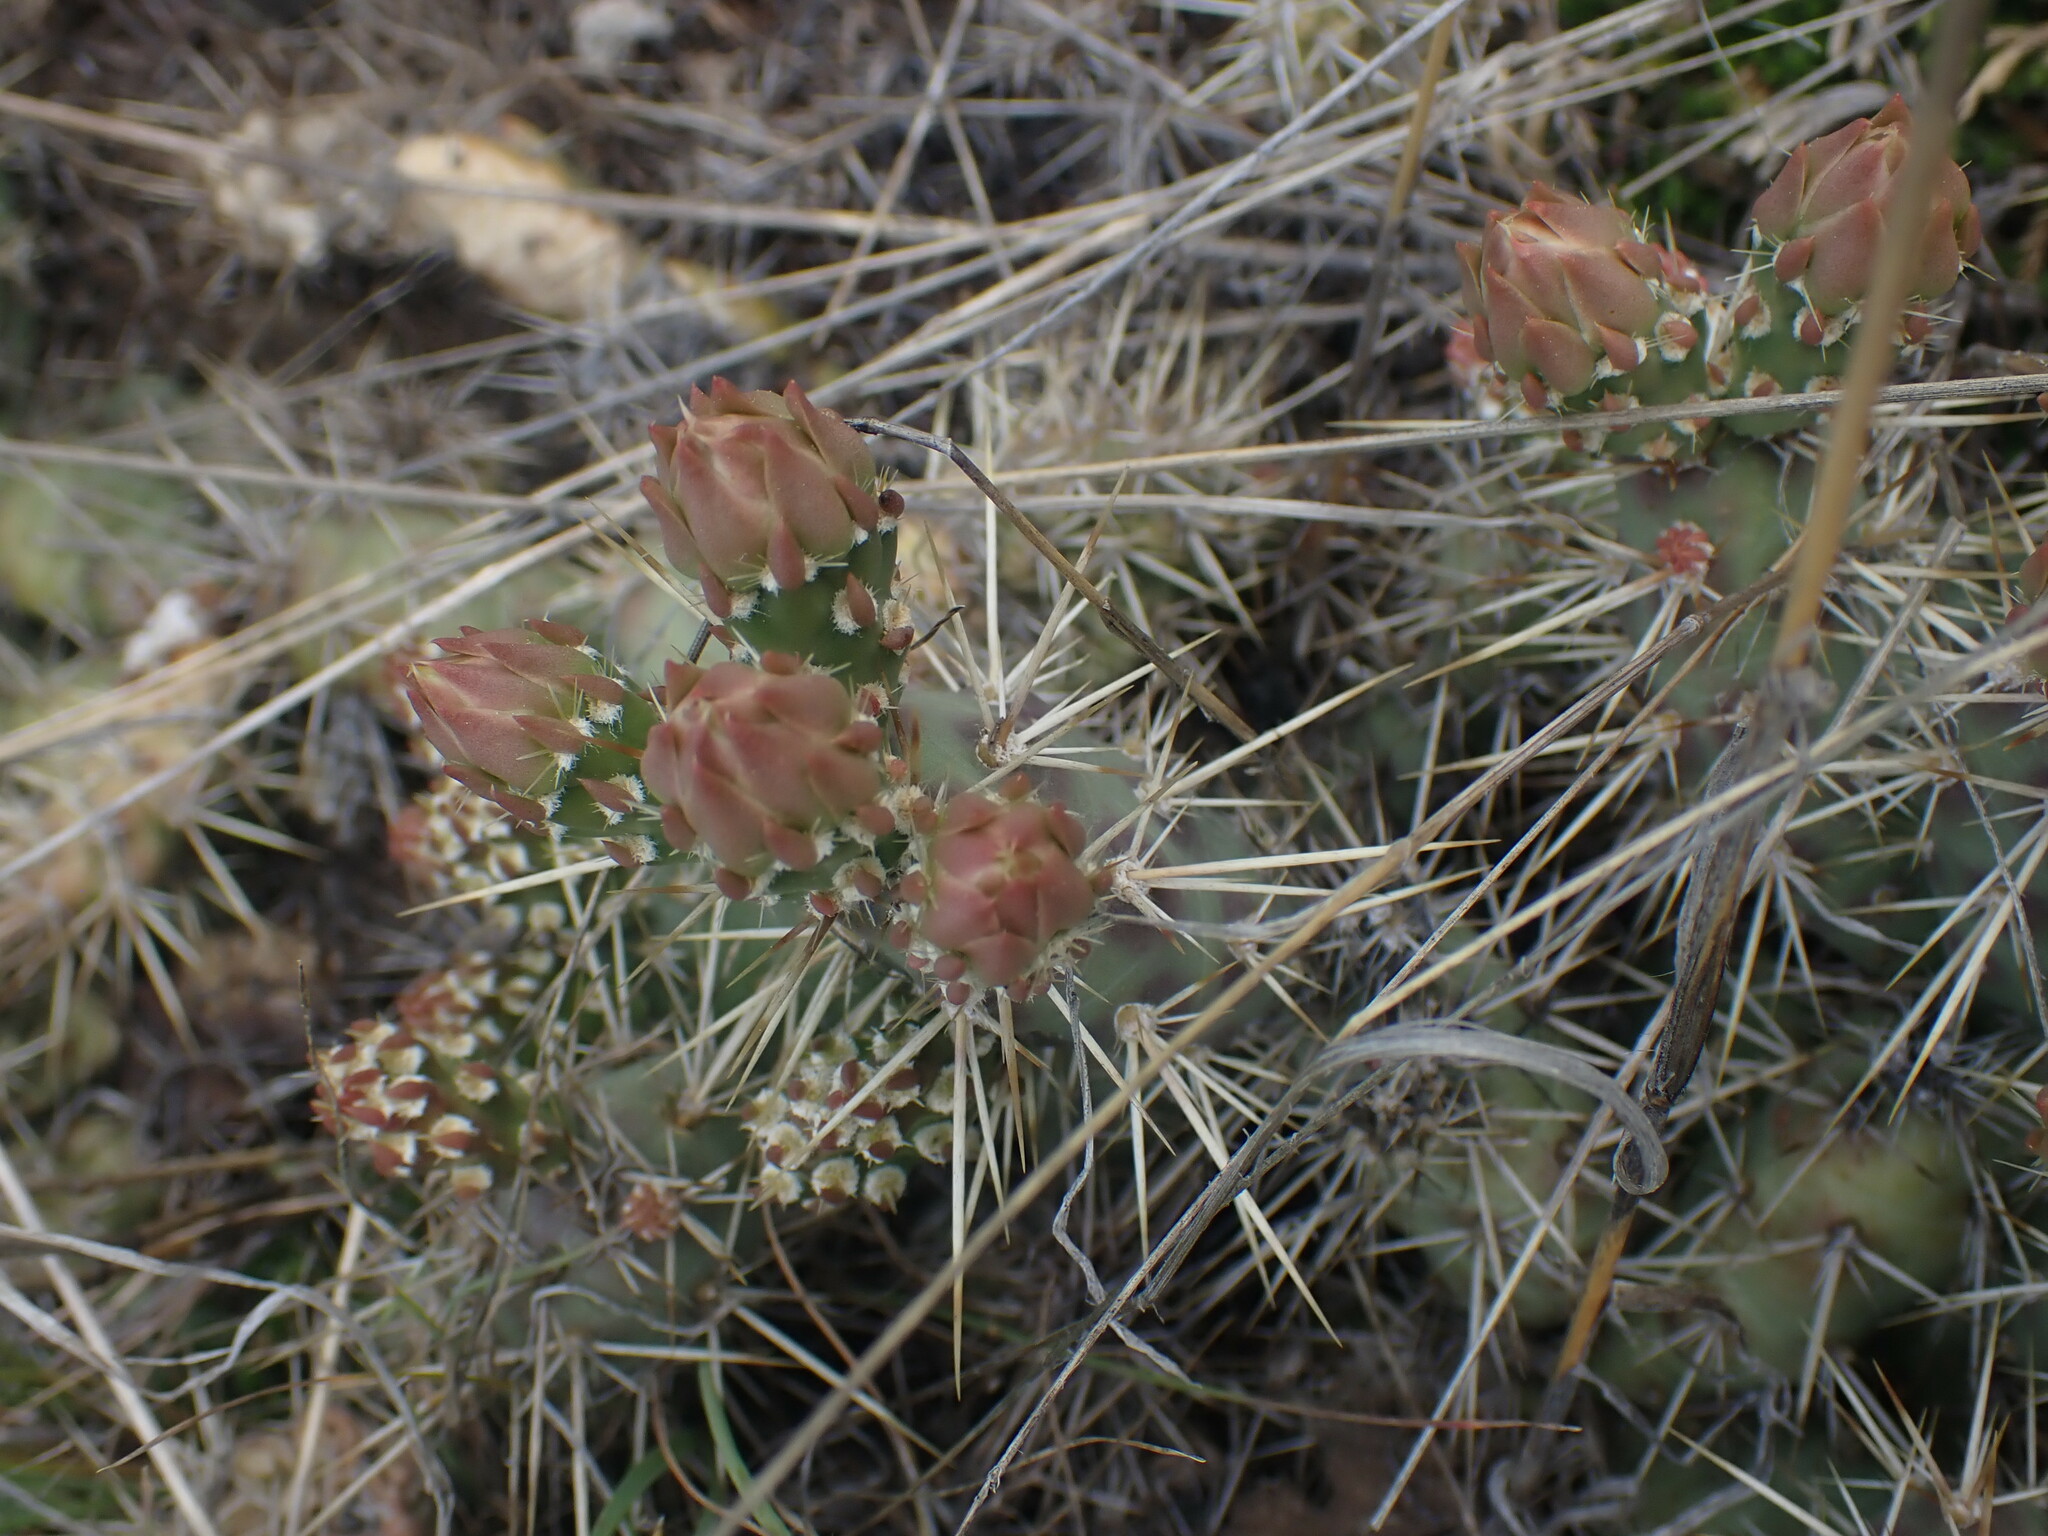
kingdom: Plantae
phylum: Tracheophyta
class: Magnoliopsida
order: Caryophyllales
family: Cactaceae
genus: Opuntia
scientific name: Opuntia fragilis
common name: Brittle cactus
